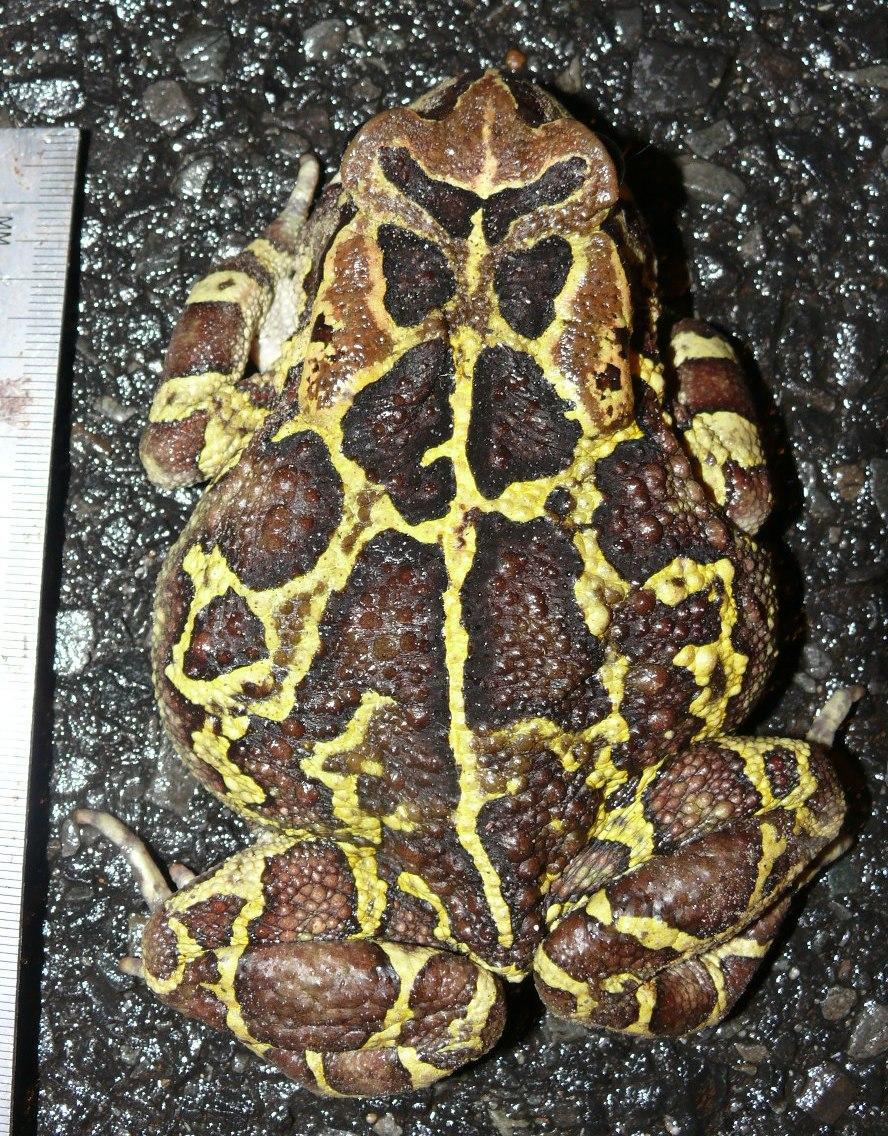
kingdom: Animalia
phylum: Chordata
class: Amphibia
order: Anura
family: Bufonidae
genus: Sclerophrys
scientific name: Sclerophrys pantherina
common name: Panther toad
